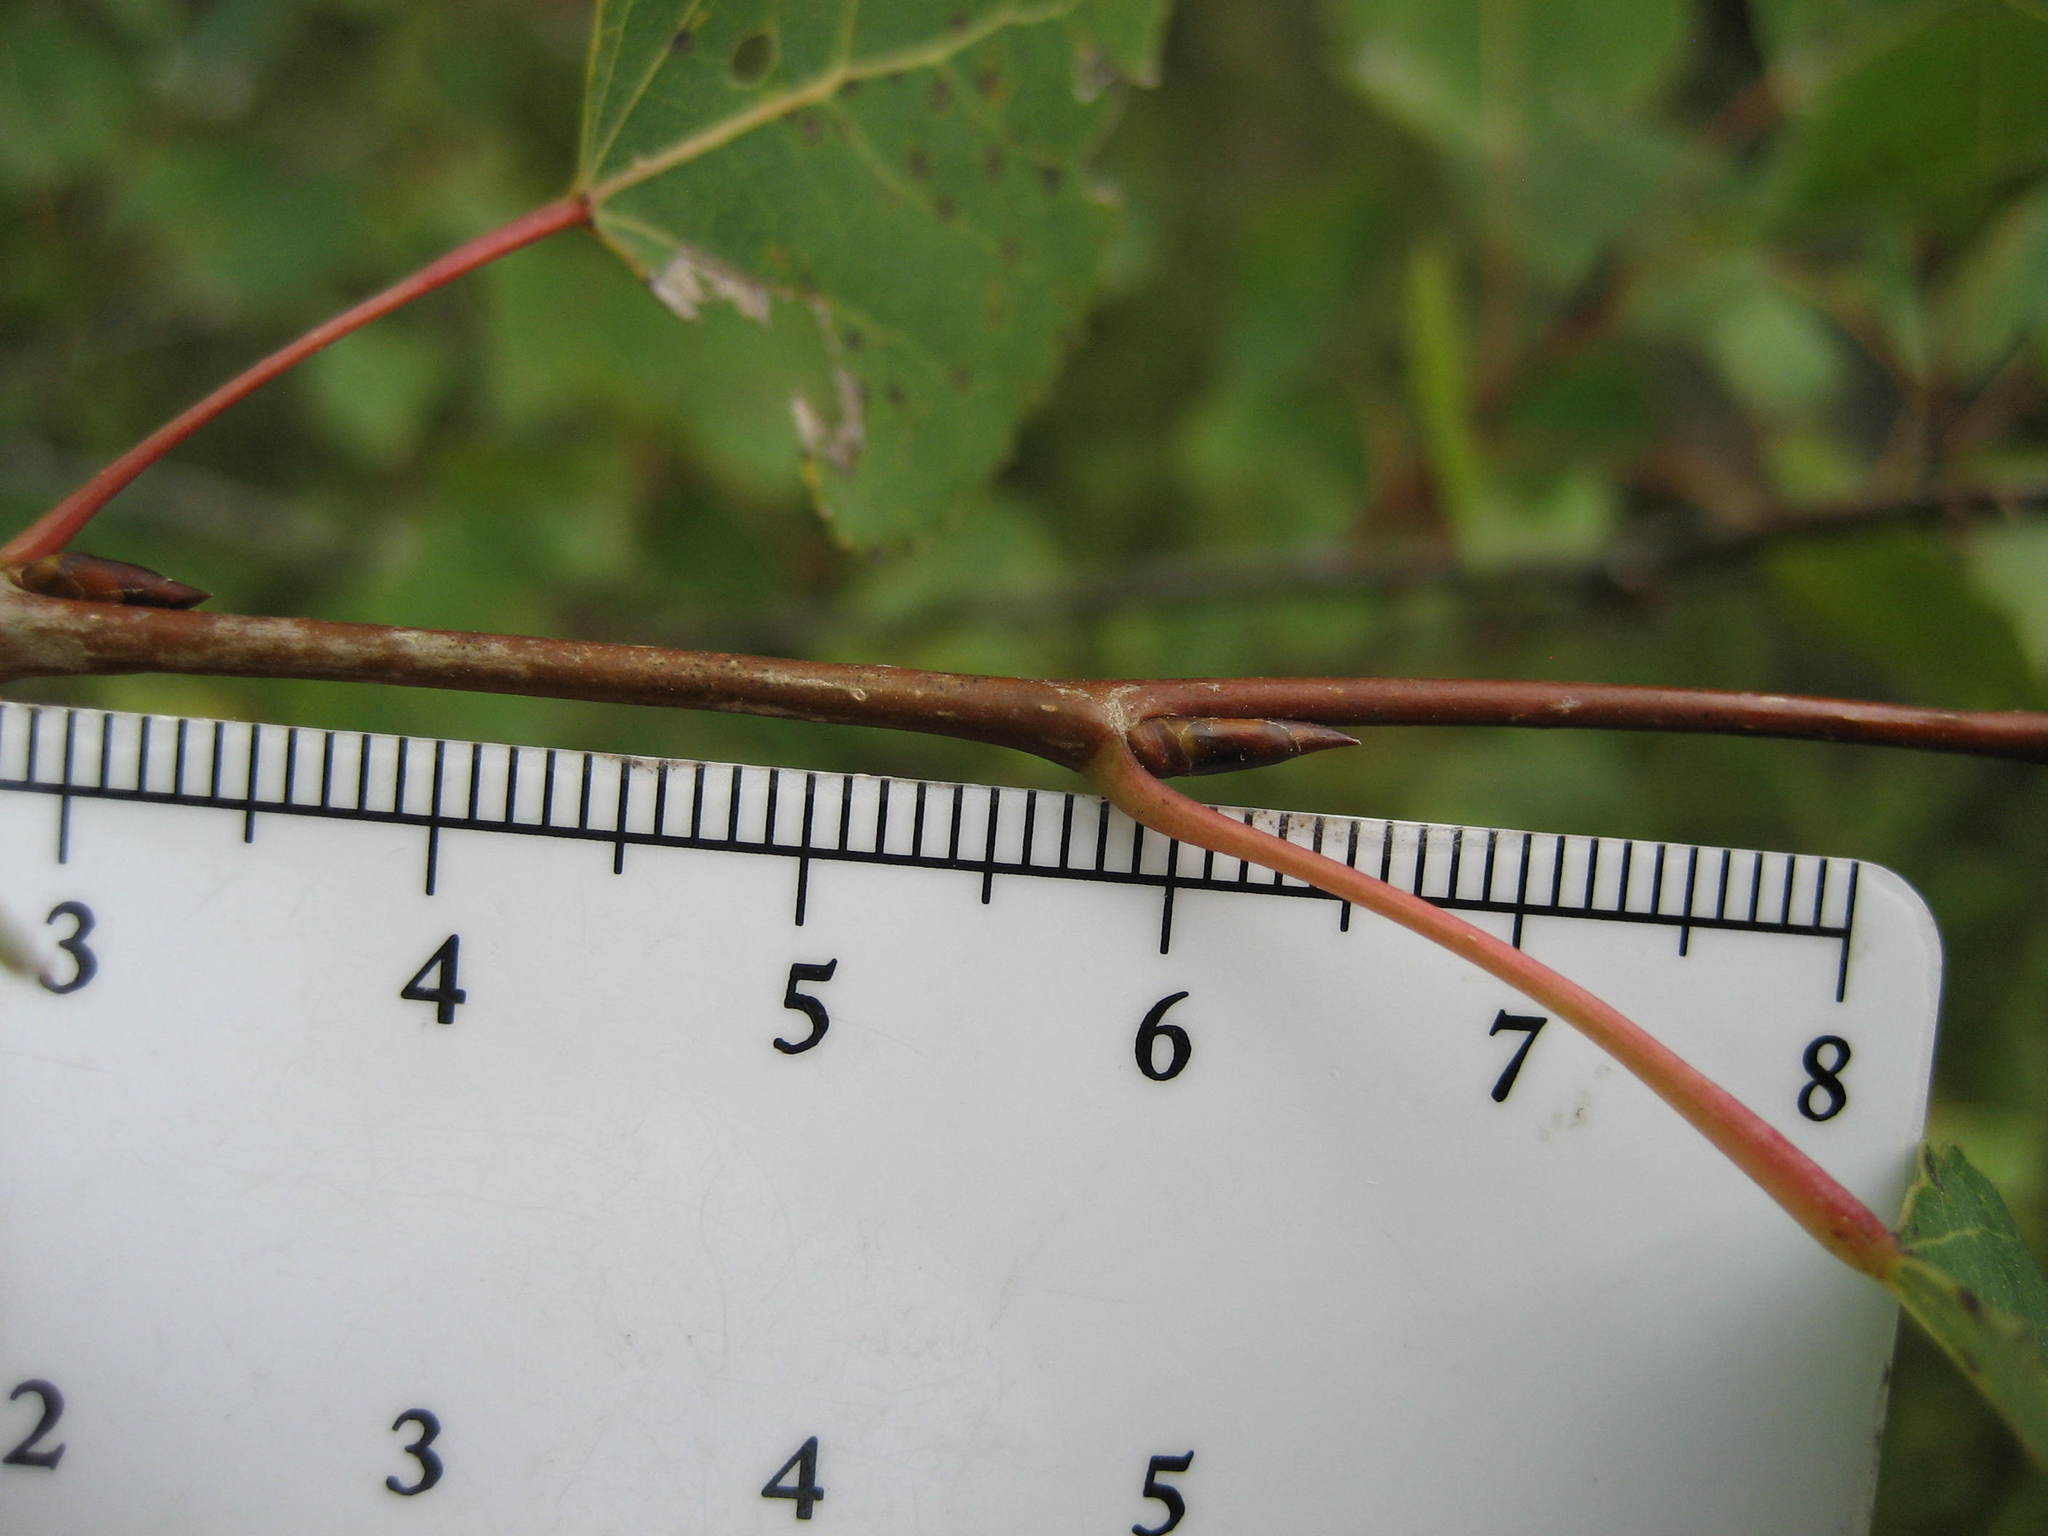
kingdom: Plantae
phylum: Tracheophyta
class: Magnoliopsida
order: Malpighiales
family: Salicaceae
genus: Populus
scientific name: Populus tremuloides
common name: Quaking aspen
